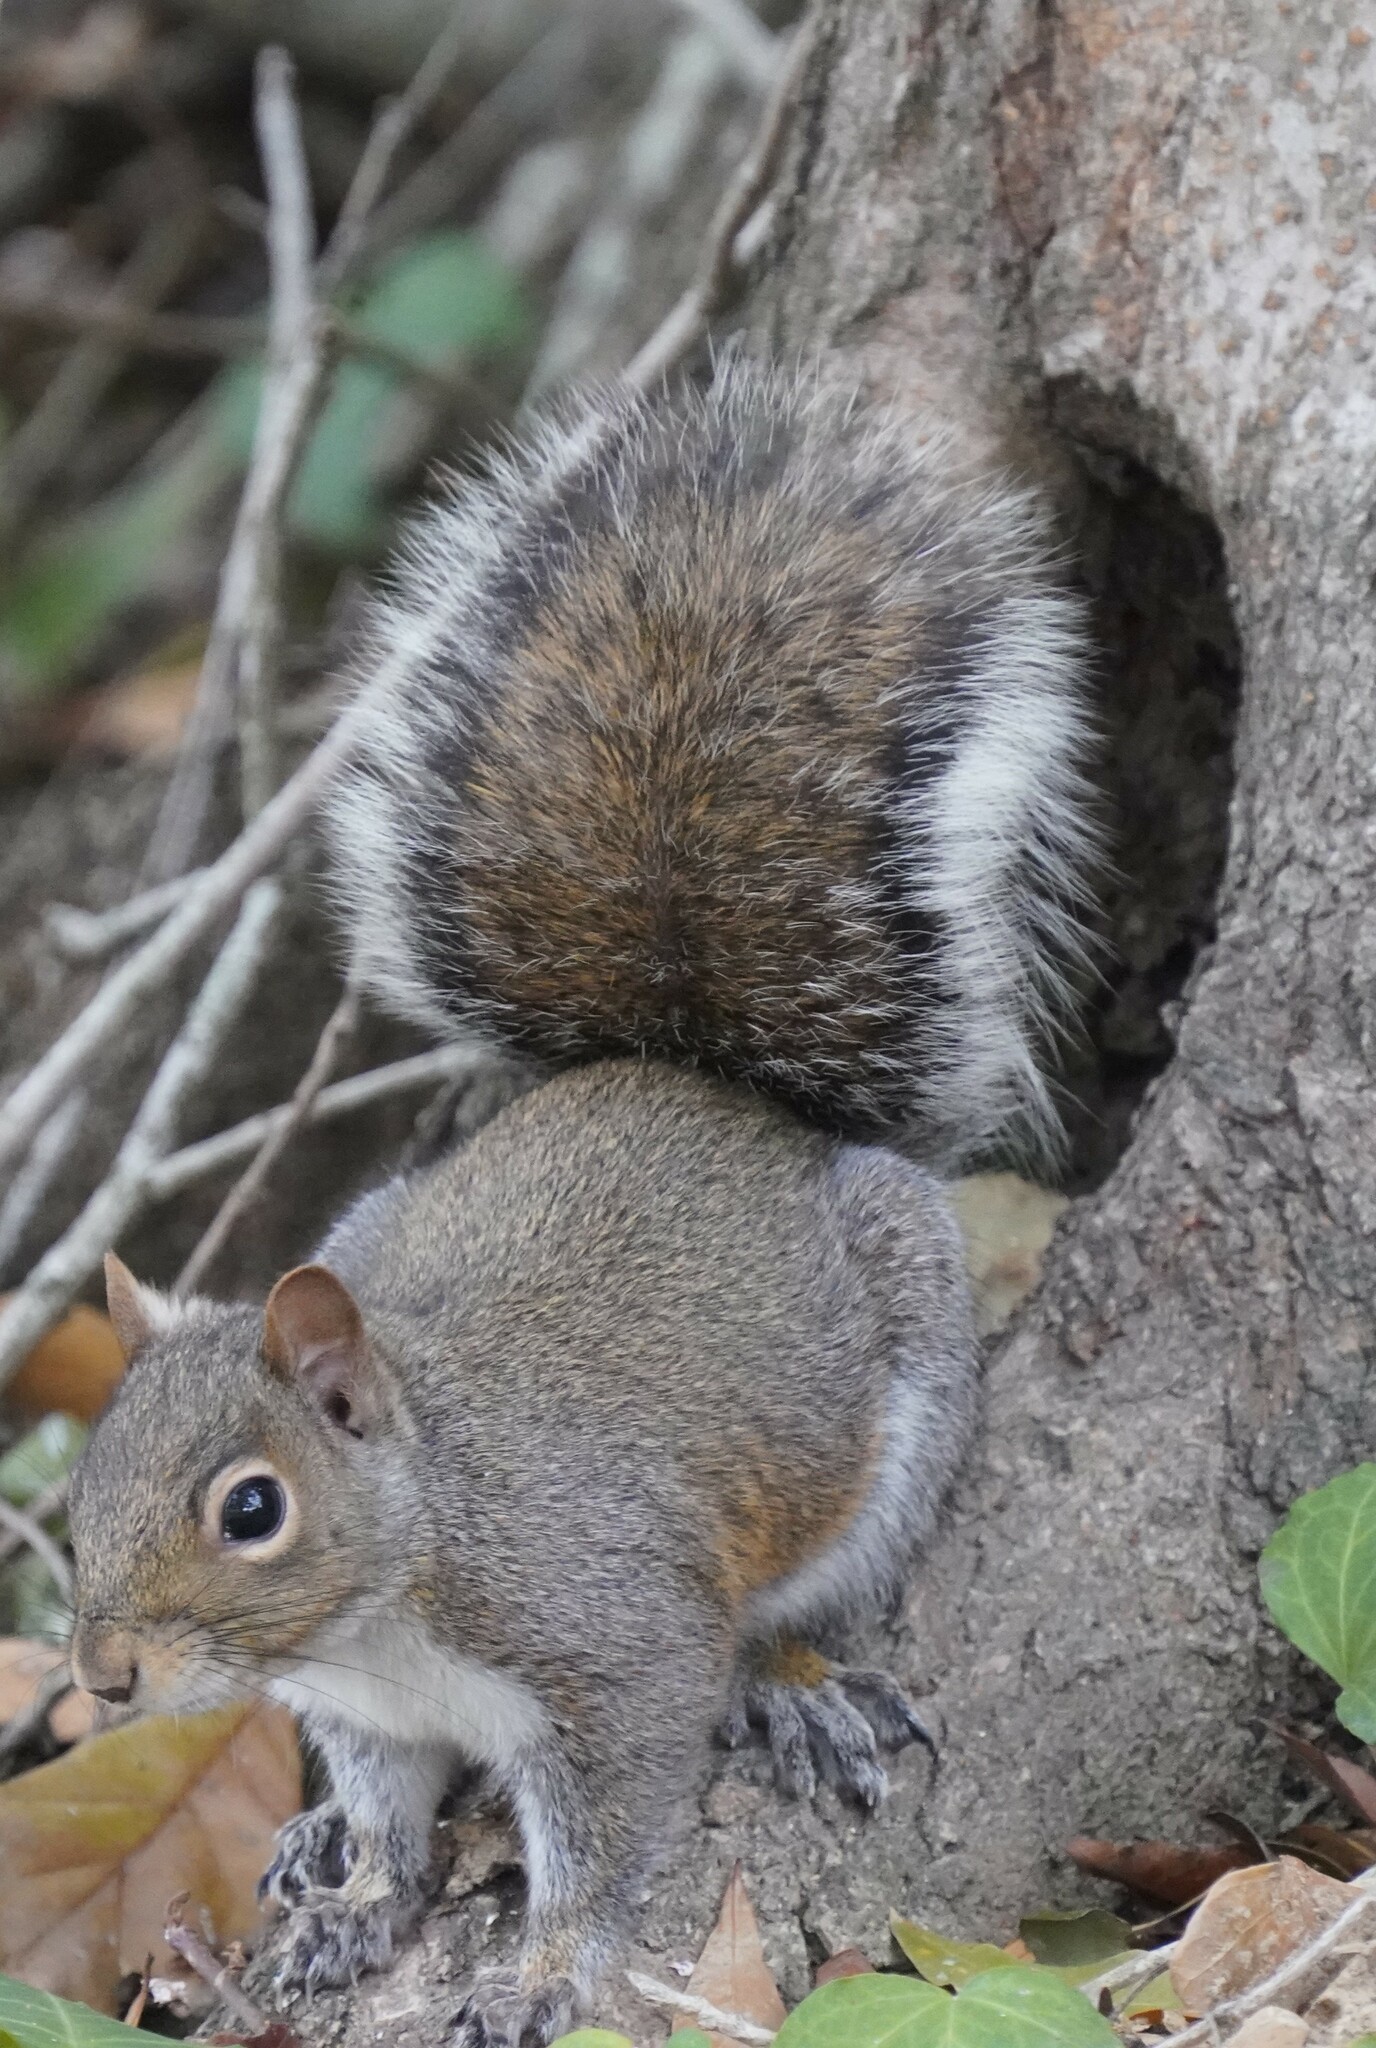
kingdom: Animalia
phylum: Chordata
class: Mammalia
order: Rodentia
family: Sciuridae
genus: Sciurus
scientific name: Sciurus carolinensis
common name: Eastern gray squirrel
